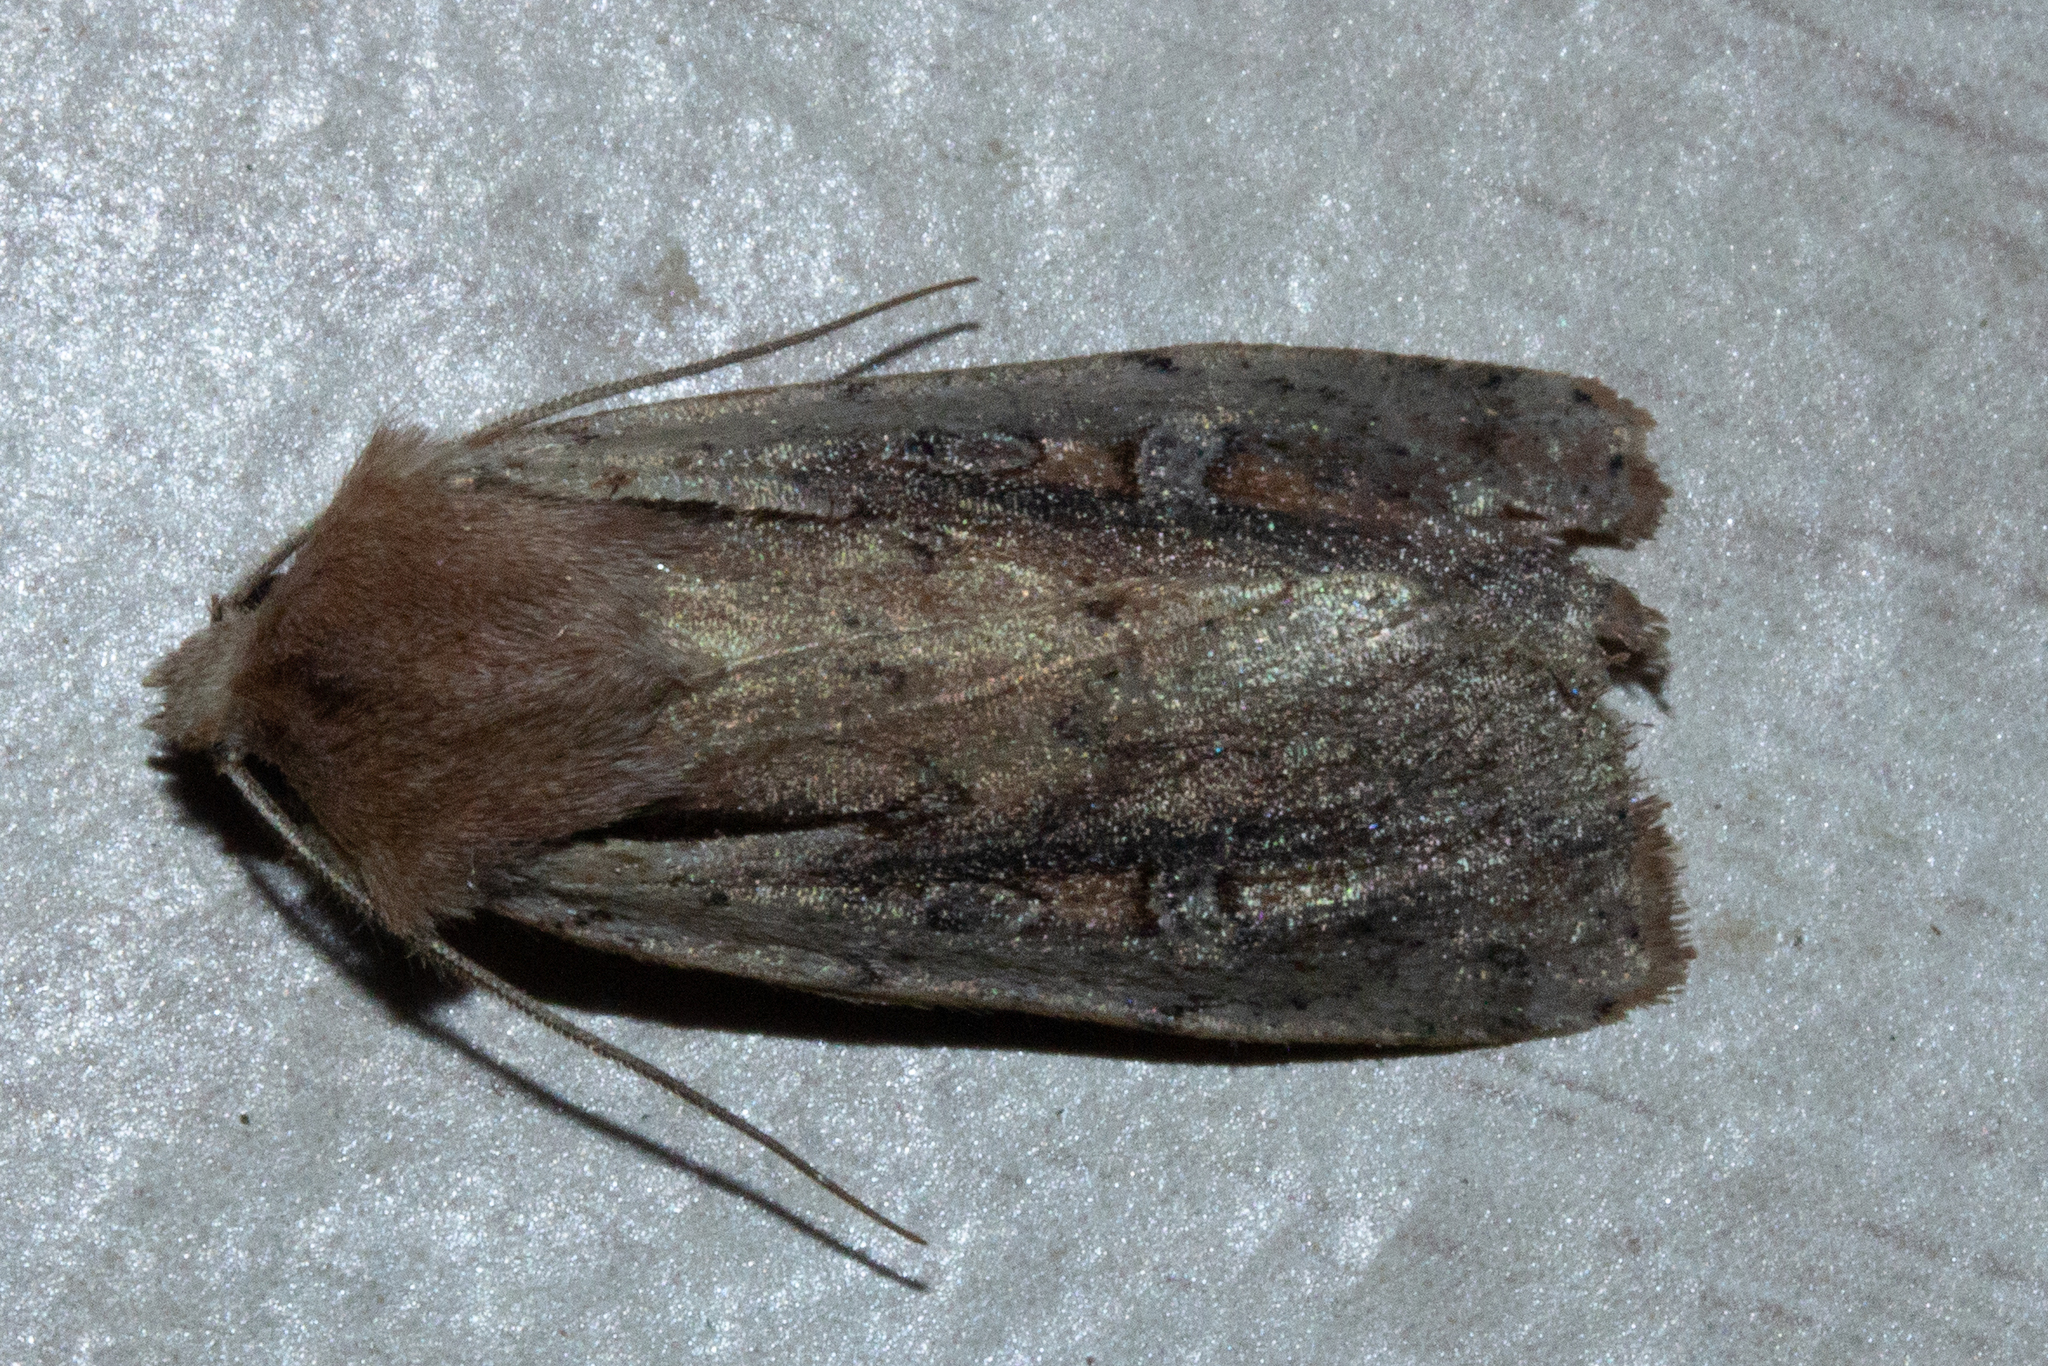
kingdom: Animalia
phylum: Arthropoda
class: Insecta
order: Lepidoptera
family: Noctuidae
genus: Ichneutica
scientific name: Ichneutica atristriga
